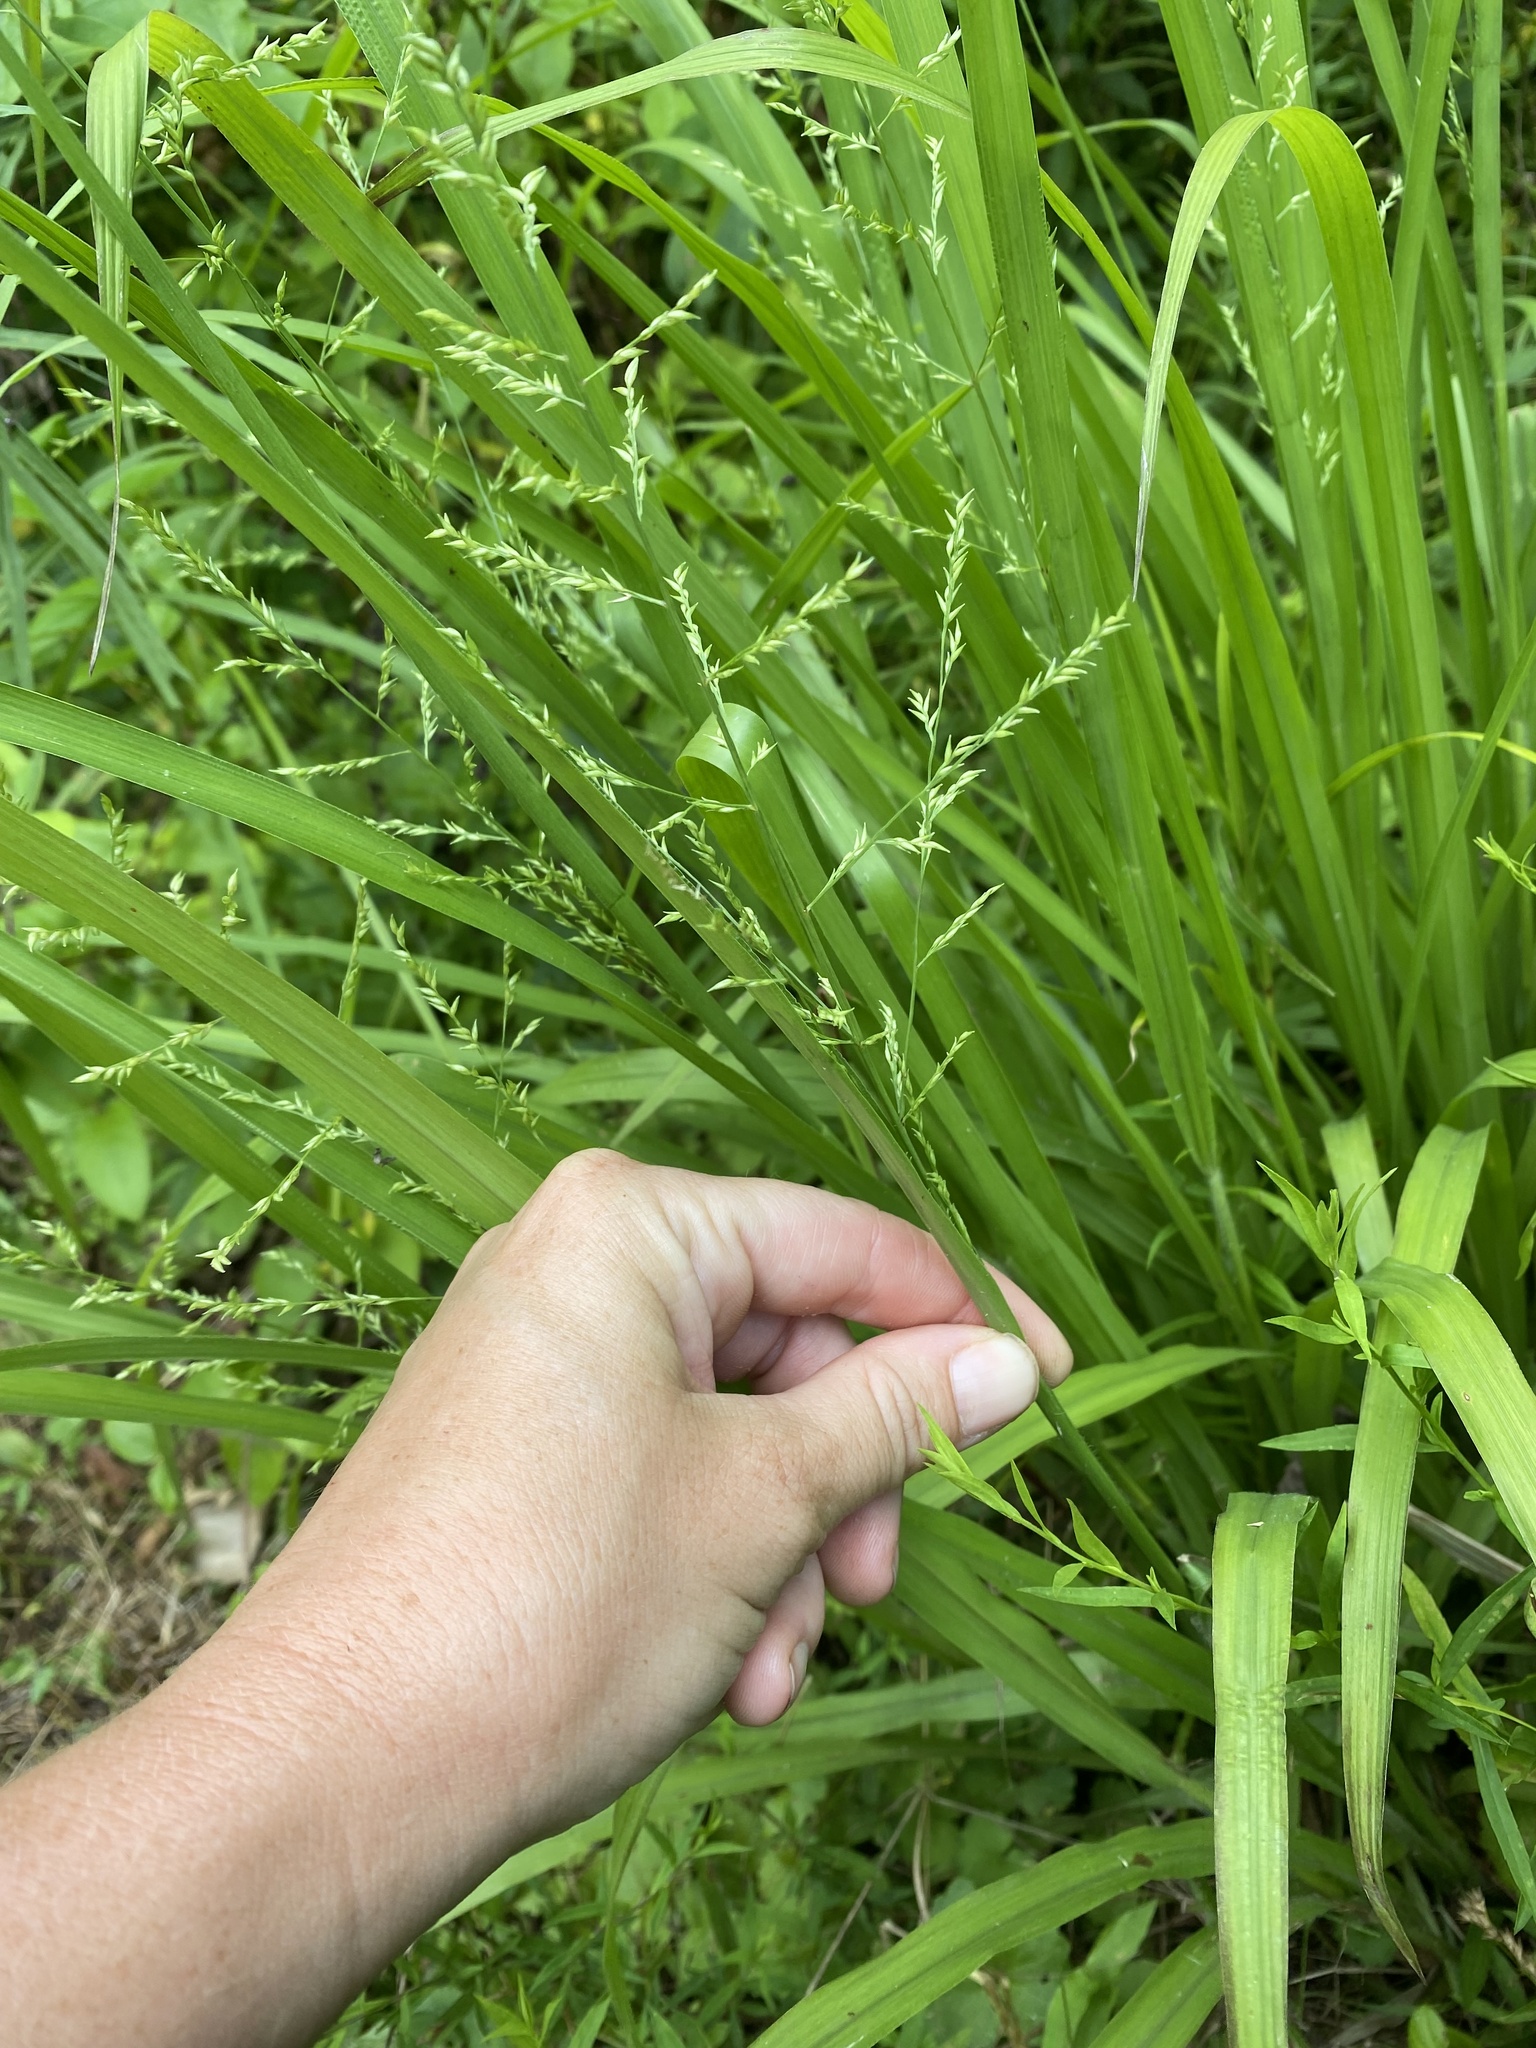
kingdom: Plantae
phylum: Tracheophyta
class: Liliopsida
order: Poales
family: Poaceae
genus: Coleataenia
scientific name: Coleataenia anceps
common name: Beaked panic grass
